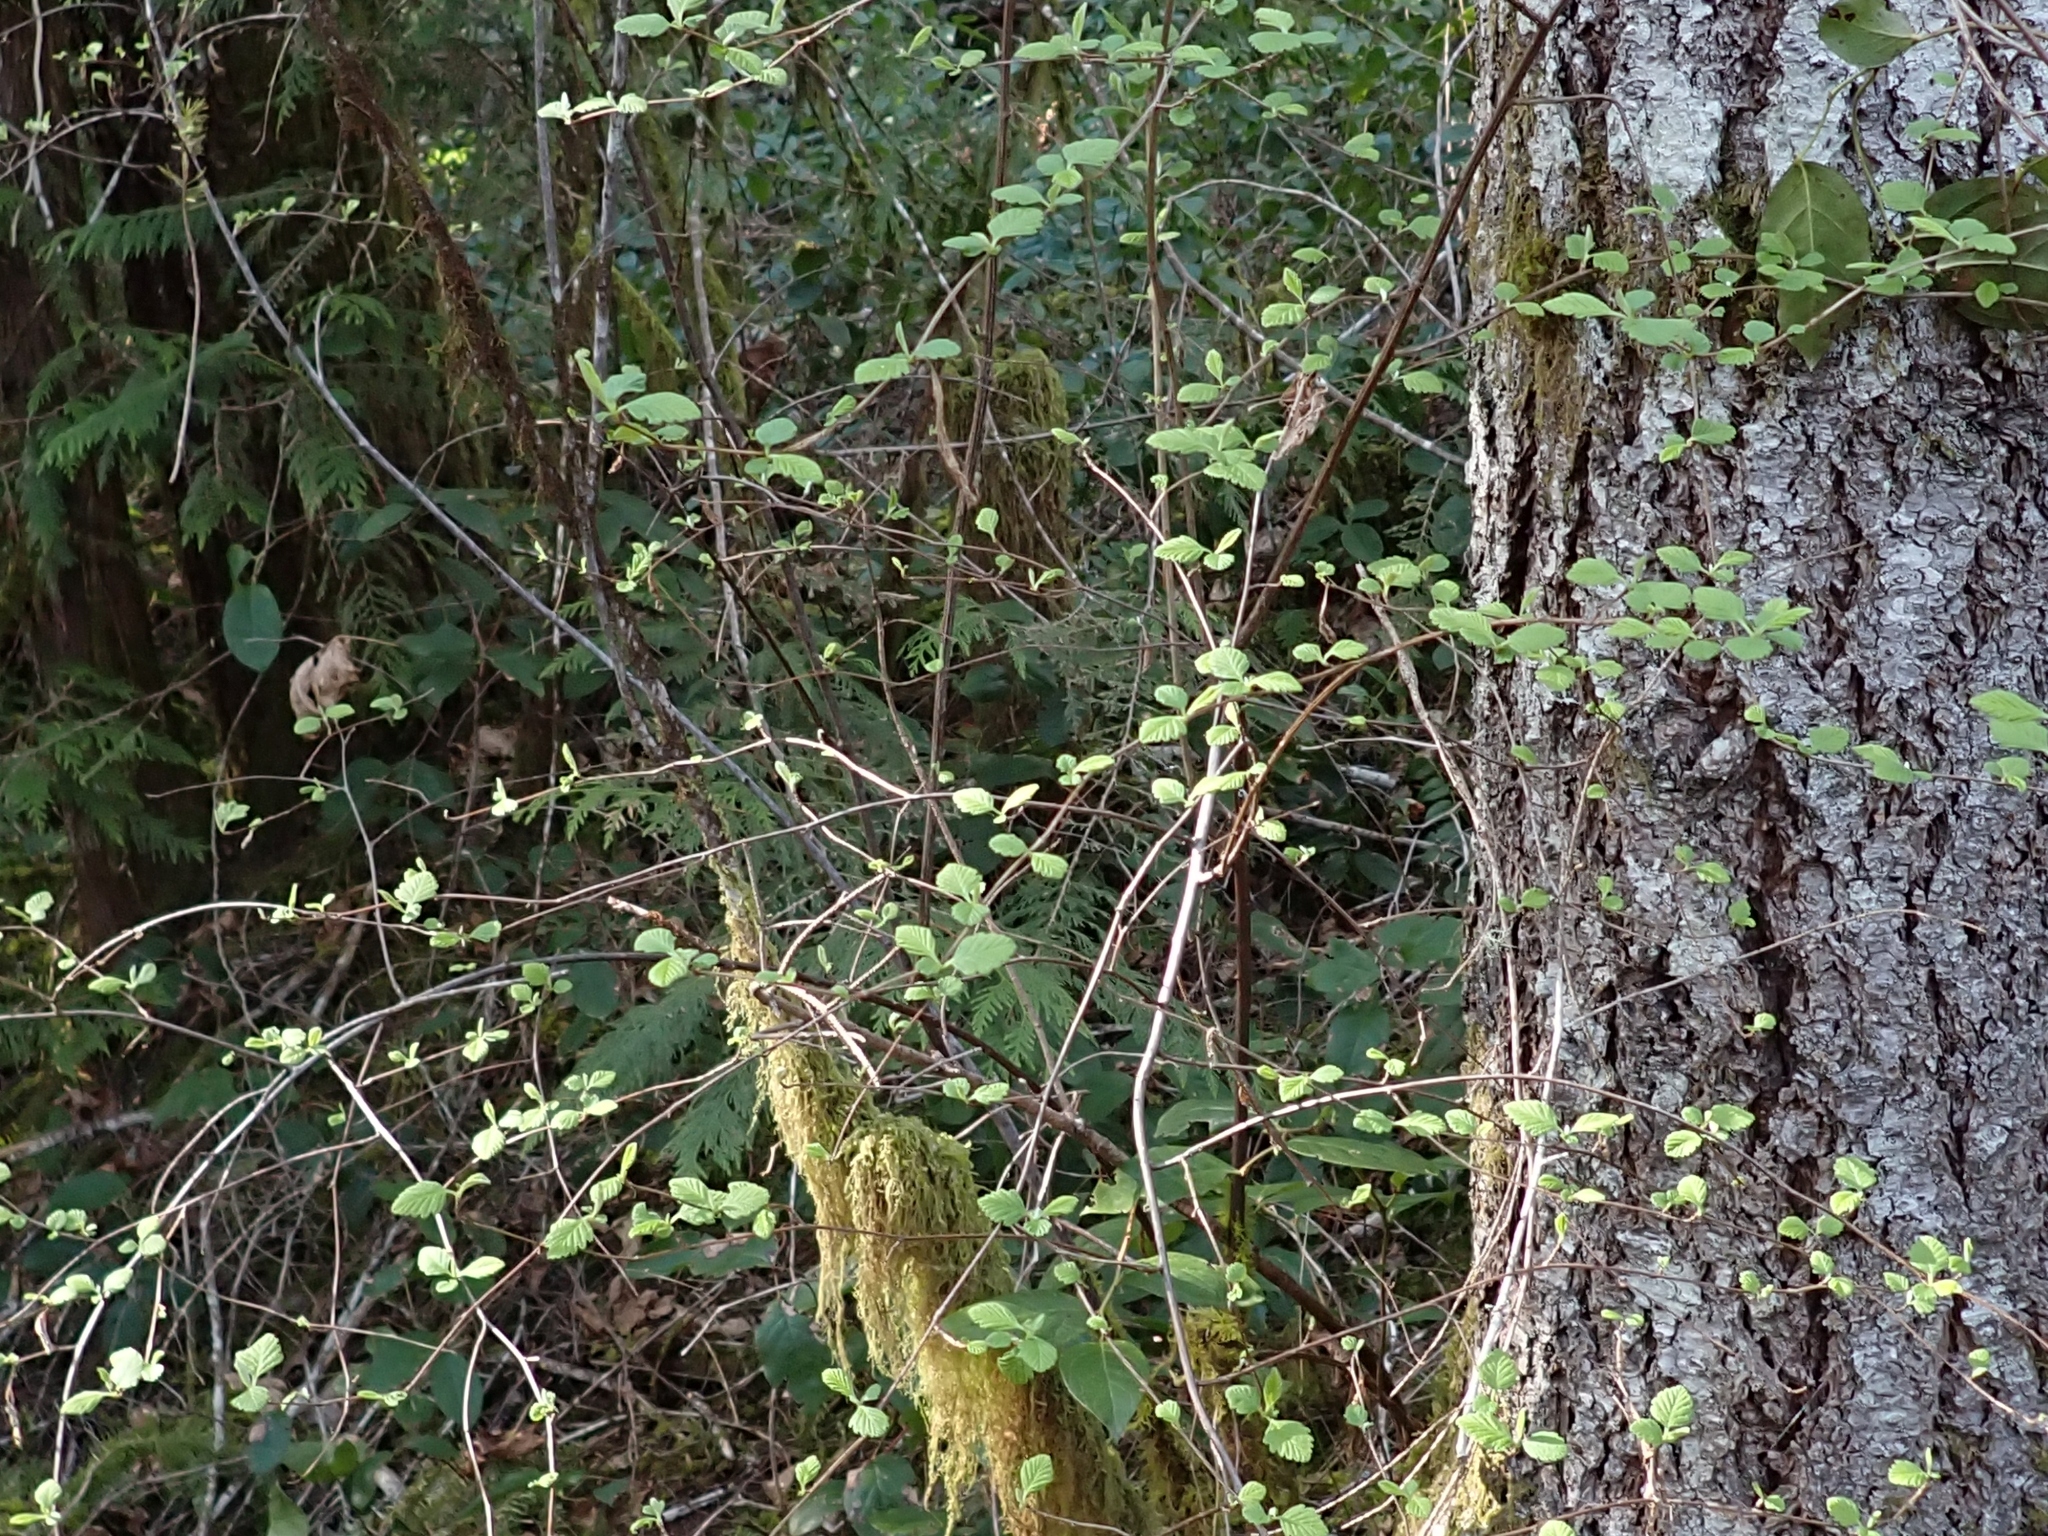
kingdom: Plantae
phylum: Tracheophyta
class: Magnoliopsida
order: Rosales
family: Rosaceae
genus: Holodiscus
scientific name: Holodiscus discolor
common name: Oceanspray
